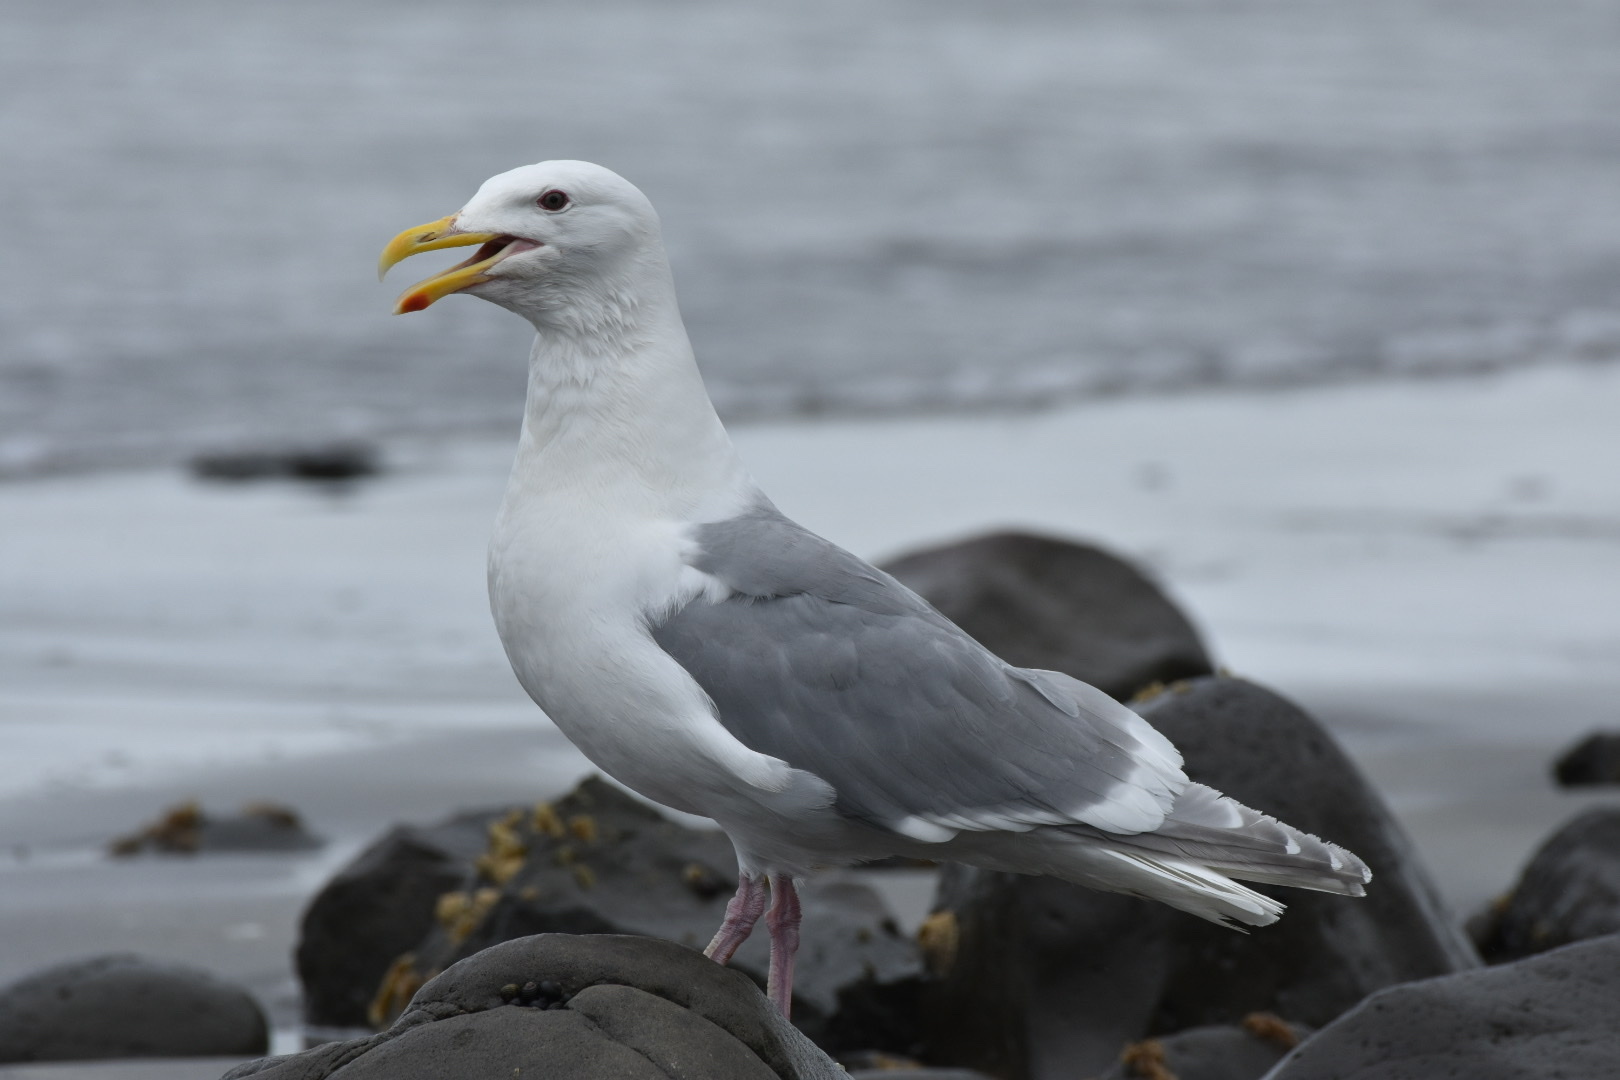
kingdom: Animalia
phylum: Chordata
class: Aves
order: Charadriiformes
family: Laridae
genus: Larus
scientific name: Larus glaucescens
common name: Glaucous-winged gull
